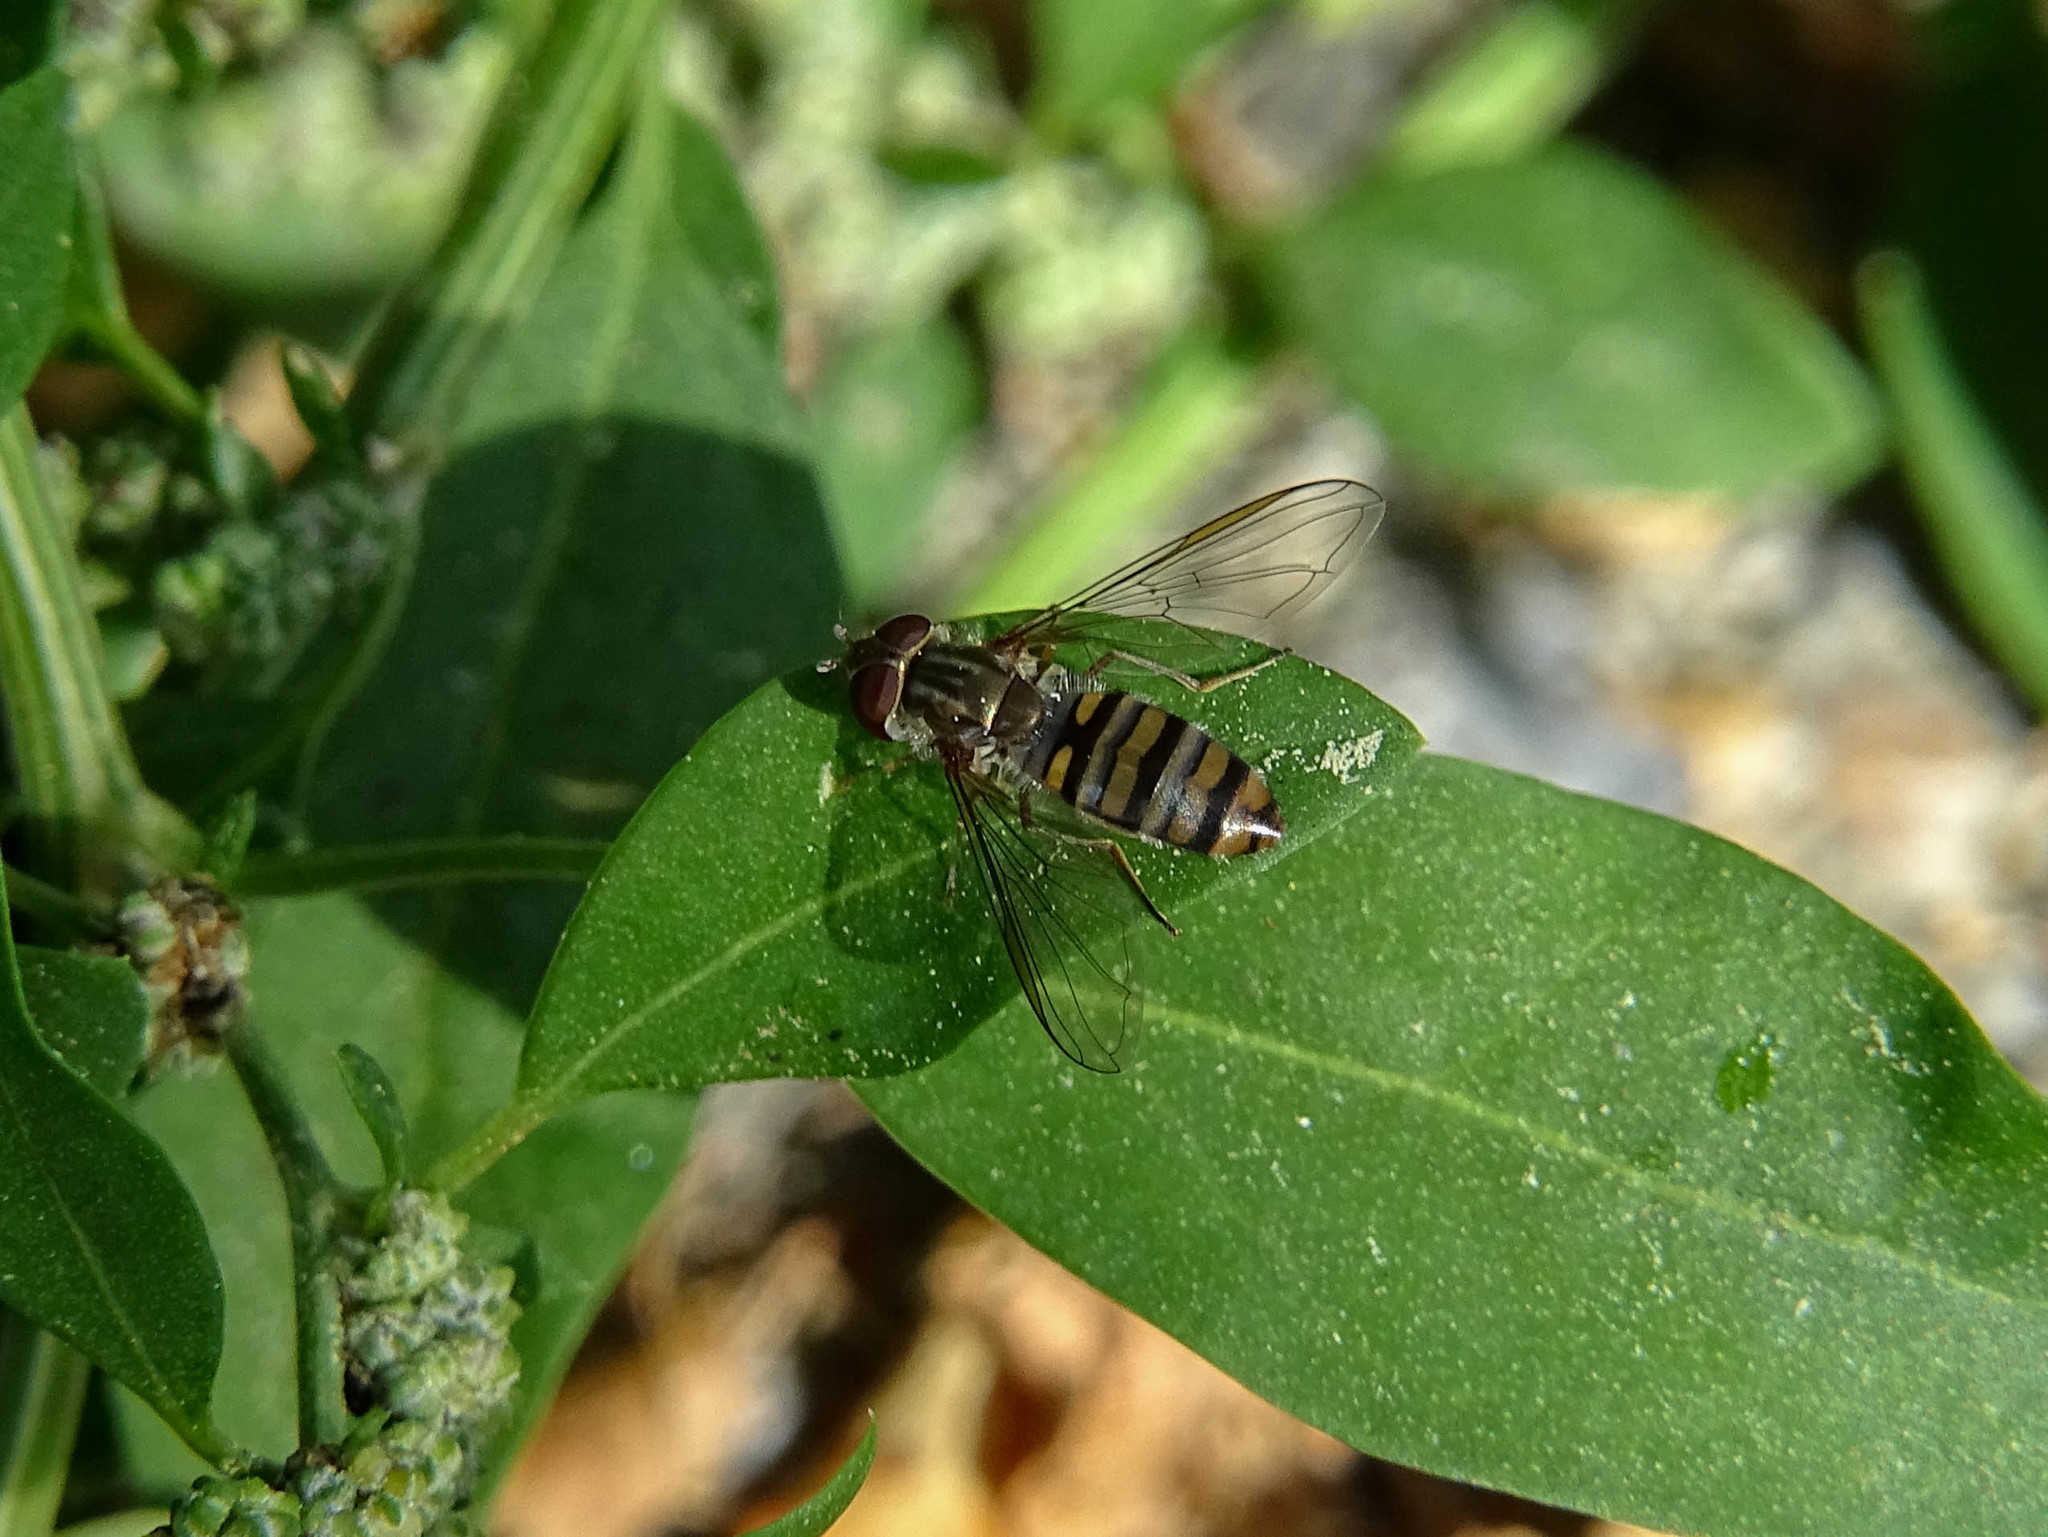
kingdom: Animalia
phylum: Arthropoda
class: Insecta
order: Diptera
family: Syrphidae
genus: Episyrphus
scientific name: Episyrphus balteatus
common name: Marmalade hoverfly
